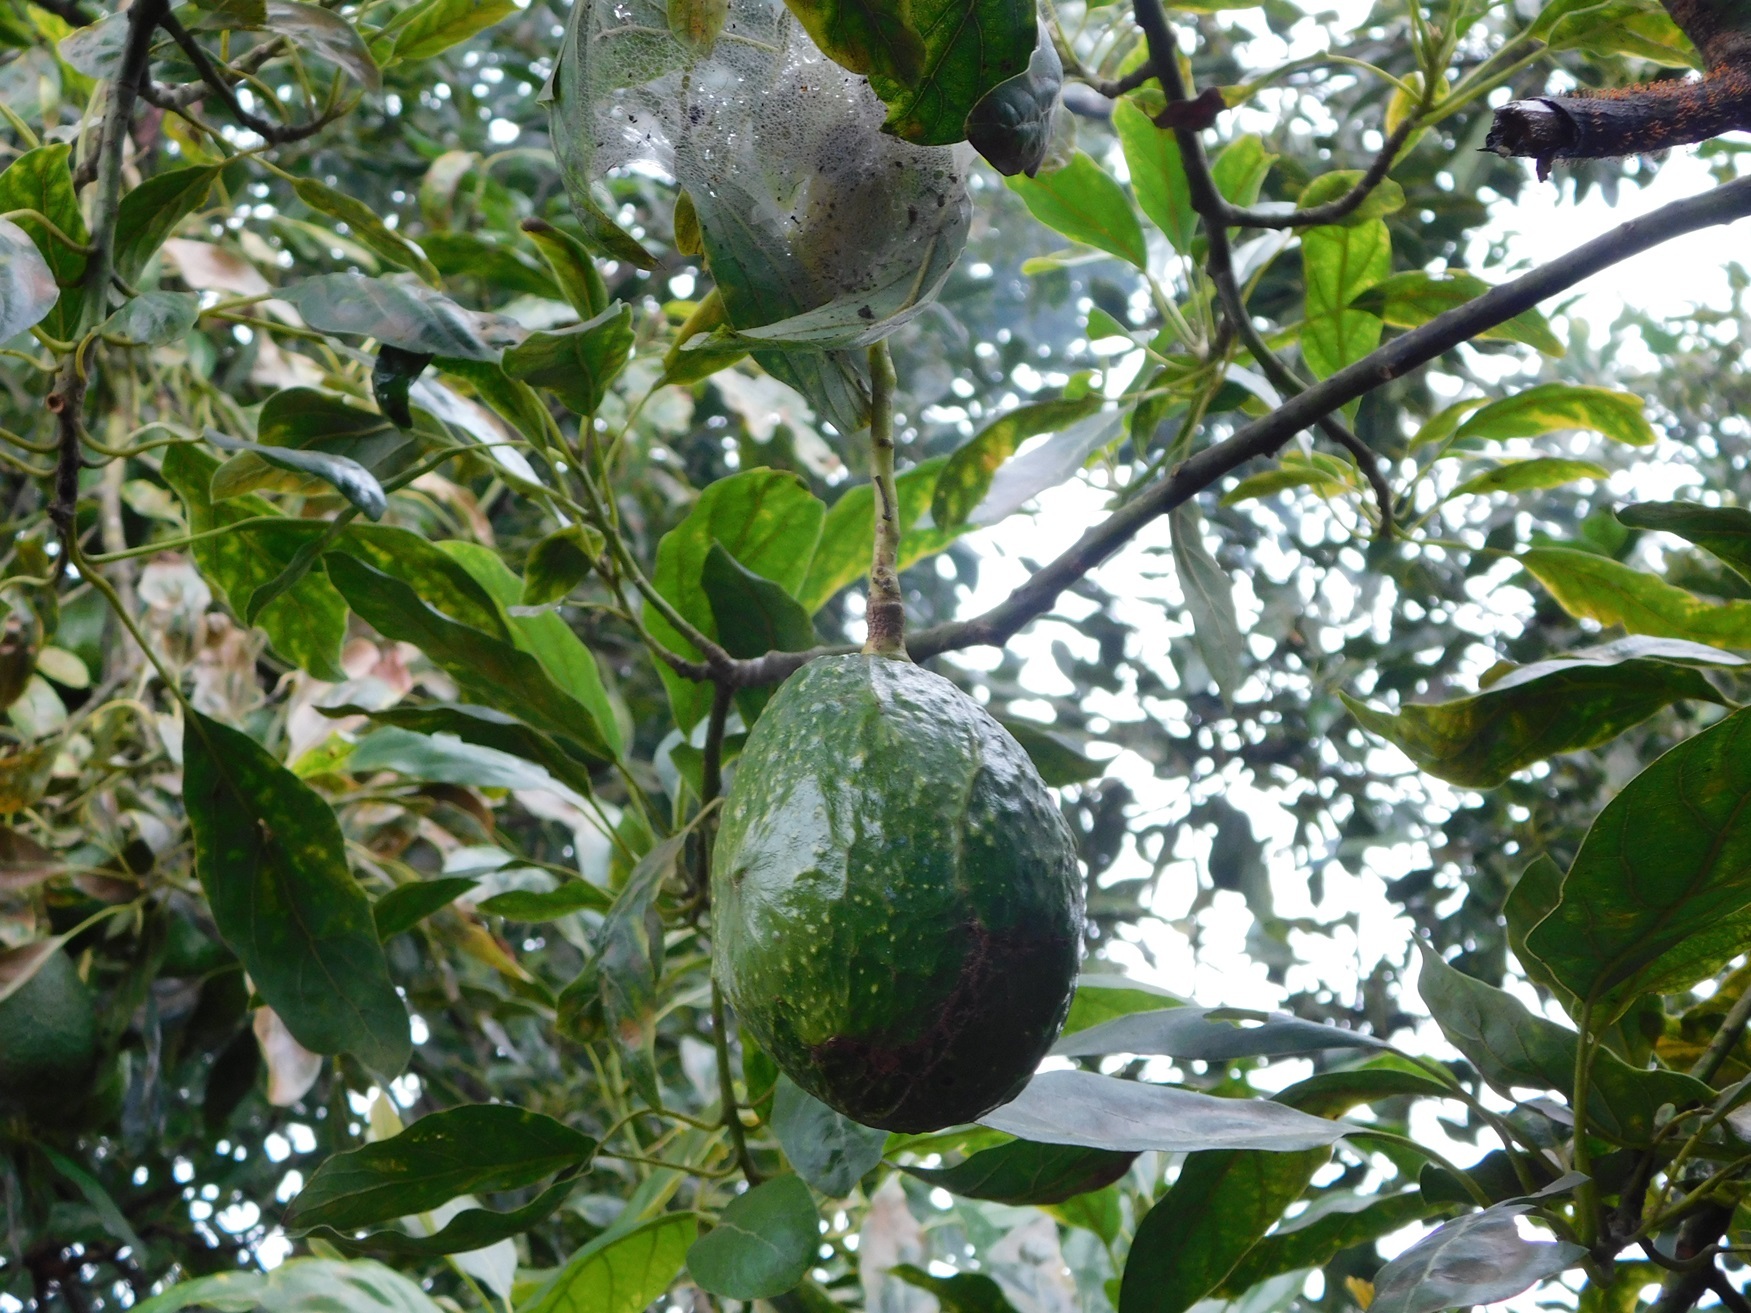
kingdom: Plantae
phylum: Tracheophyta
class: Magnoliopsida
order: Laurales
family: Lauraceae
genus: Persea
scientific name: Persea americana
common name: Avocado
